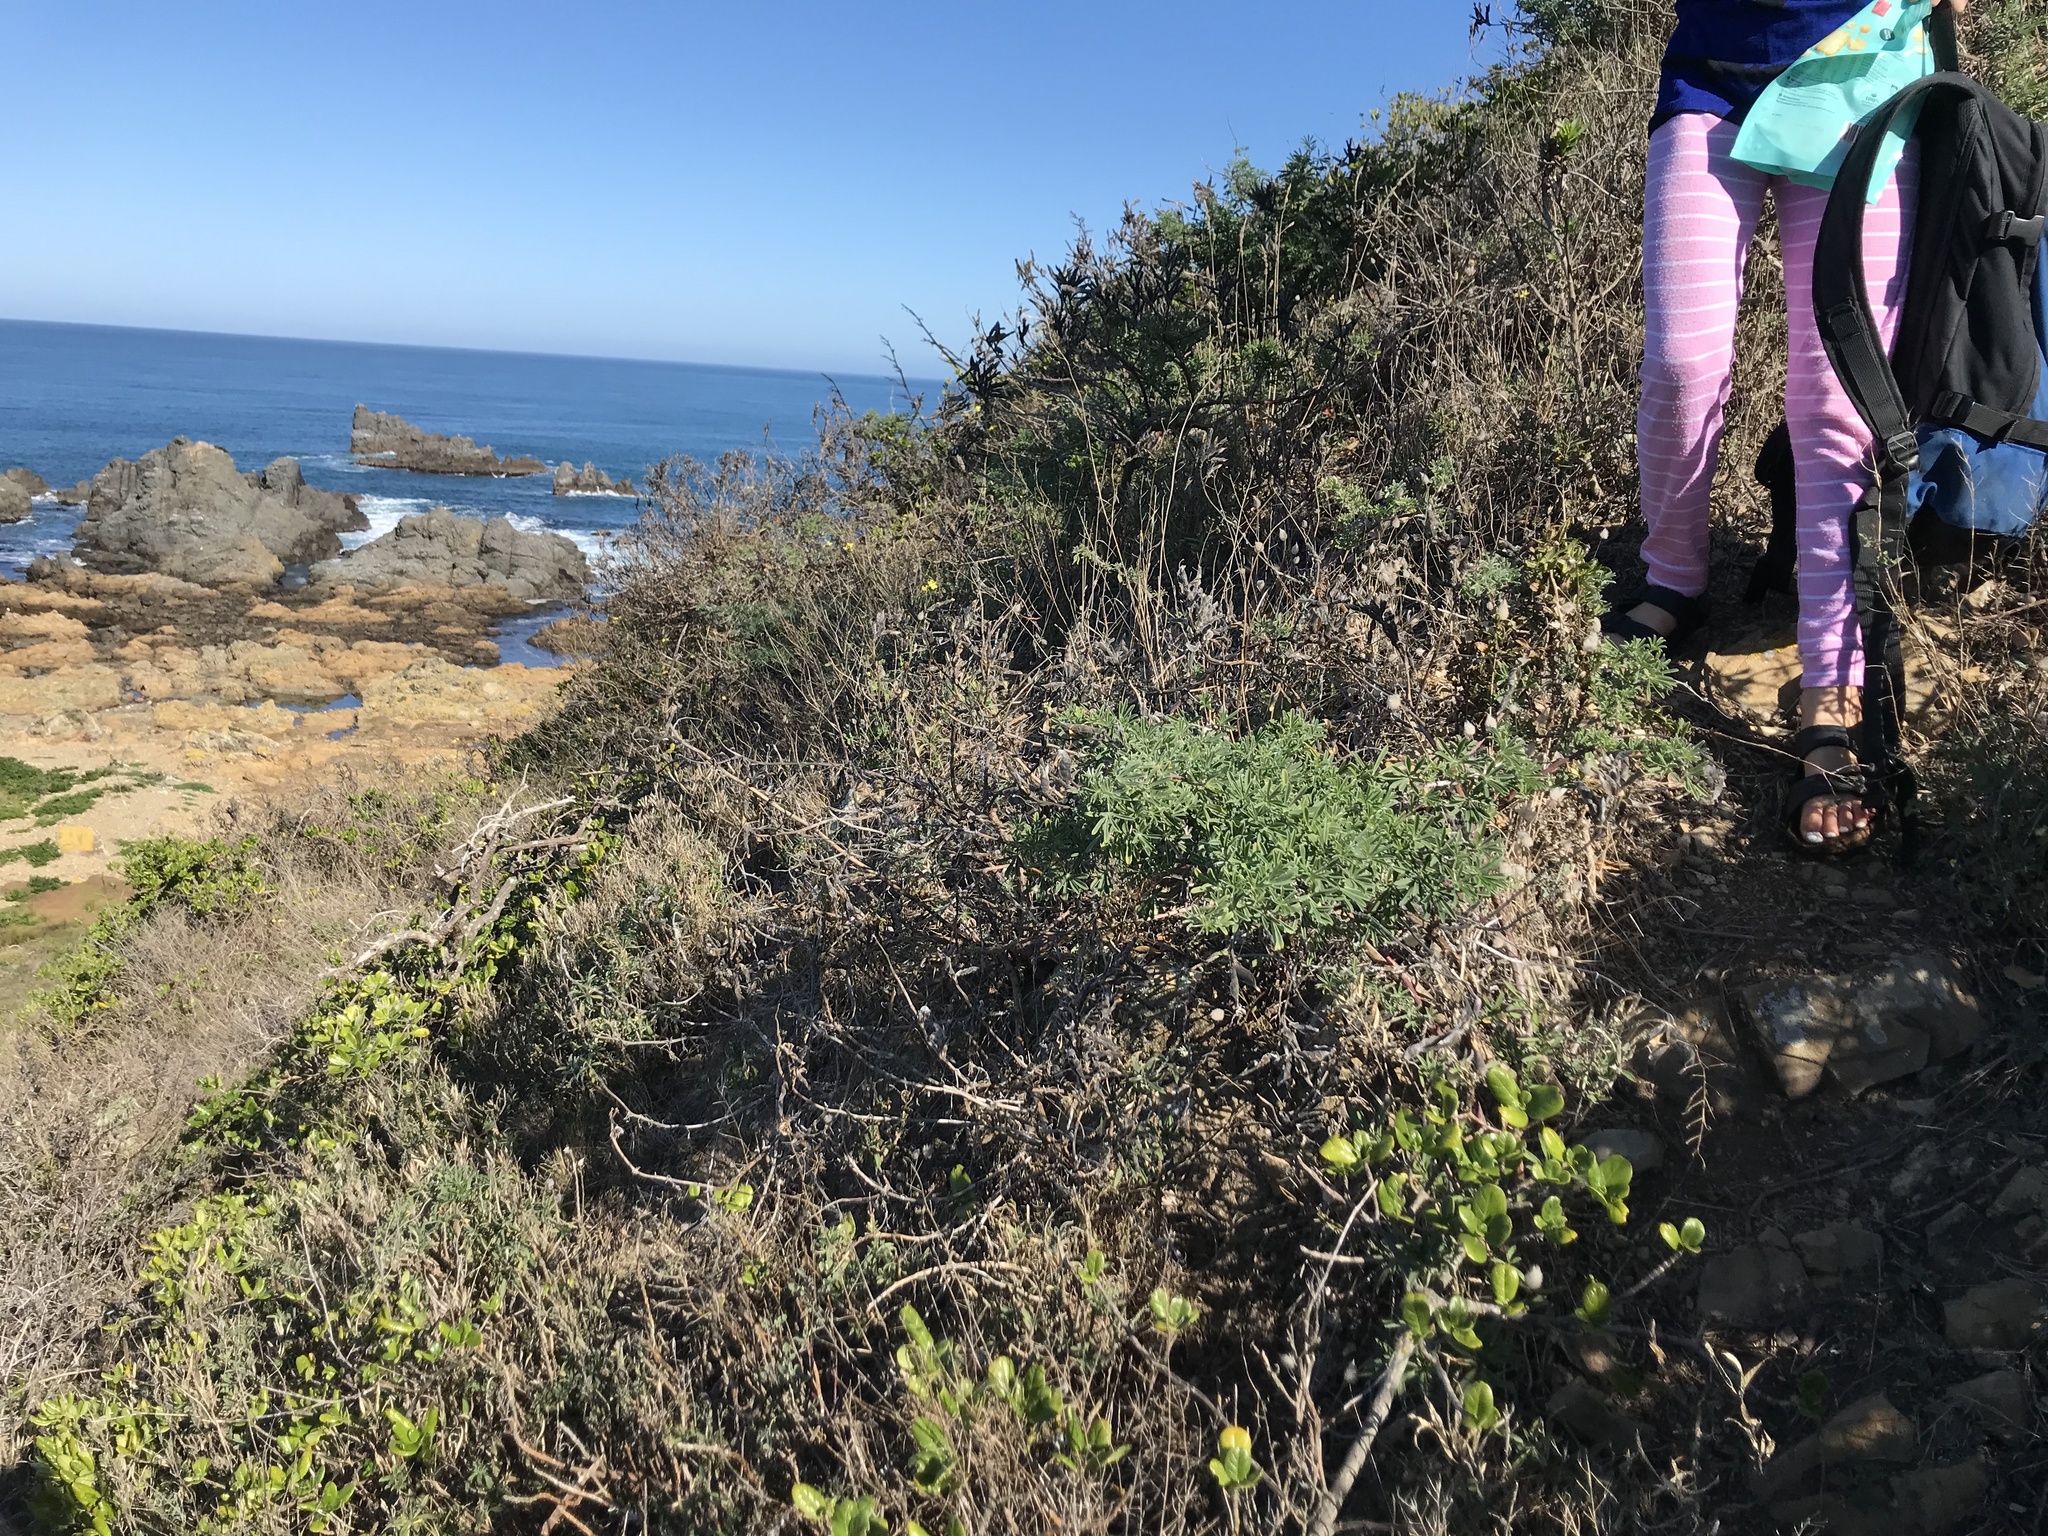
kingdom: Plantae
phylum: Tracheophyta
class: Magnoliopsida
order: Fabales
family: Fabaceae
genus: Lupinus
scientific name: Lupinus arboreus
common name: Yellow bush lupine
